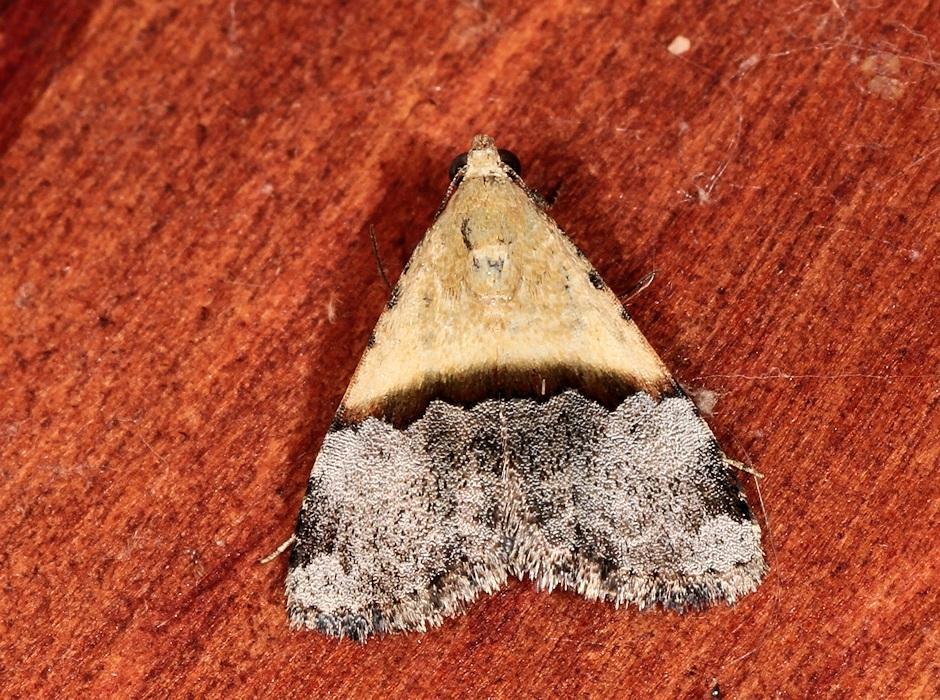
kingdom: Animalia
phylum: Arthropoda
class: Insecta
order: Lepidoptera
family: Noctuidae
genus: Ozarba
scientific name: Ozarba bipartita
